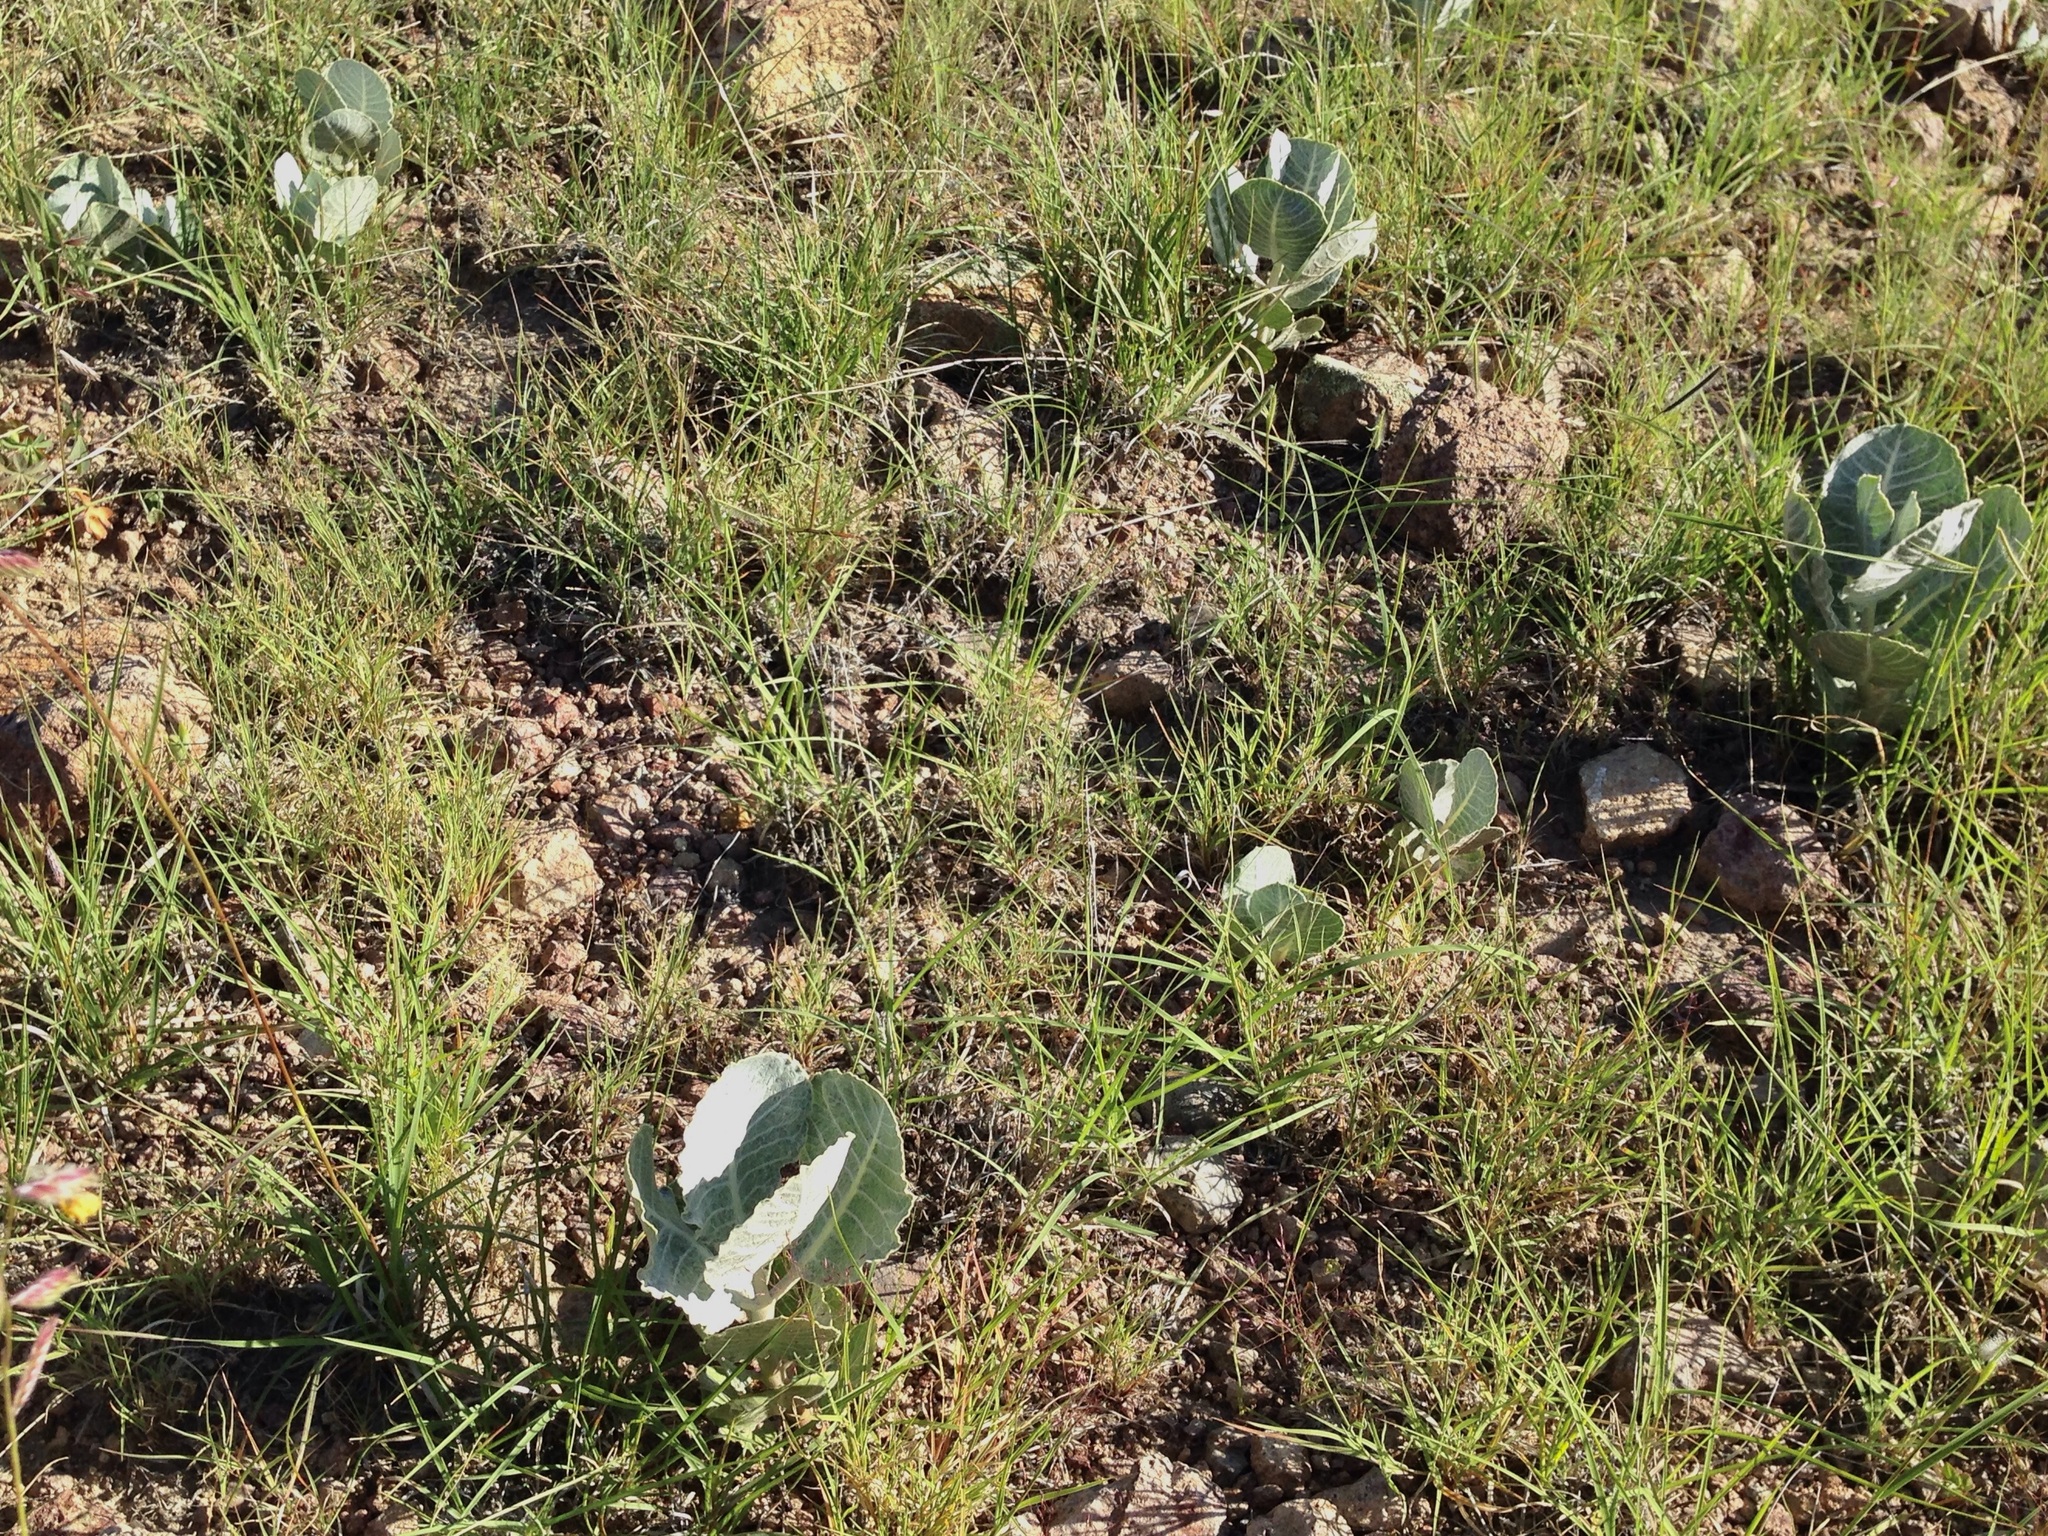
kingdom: Plantae
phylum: Tracheophyta
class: Magnoliopsida
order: Gentianales
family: Apocynaceae
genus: Asclepias
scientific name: Asclepias nummularia
